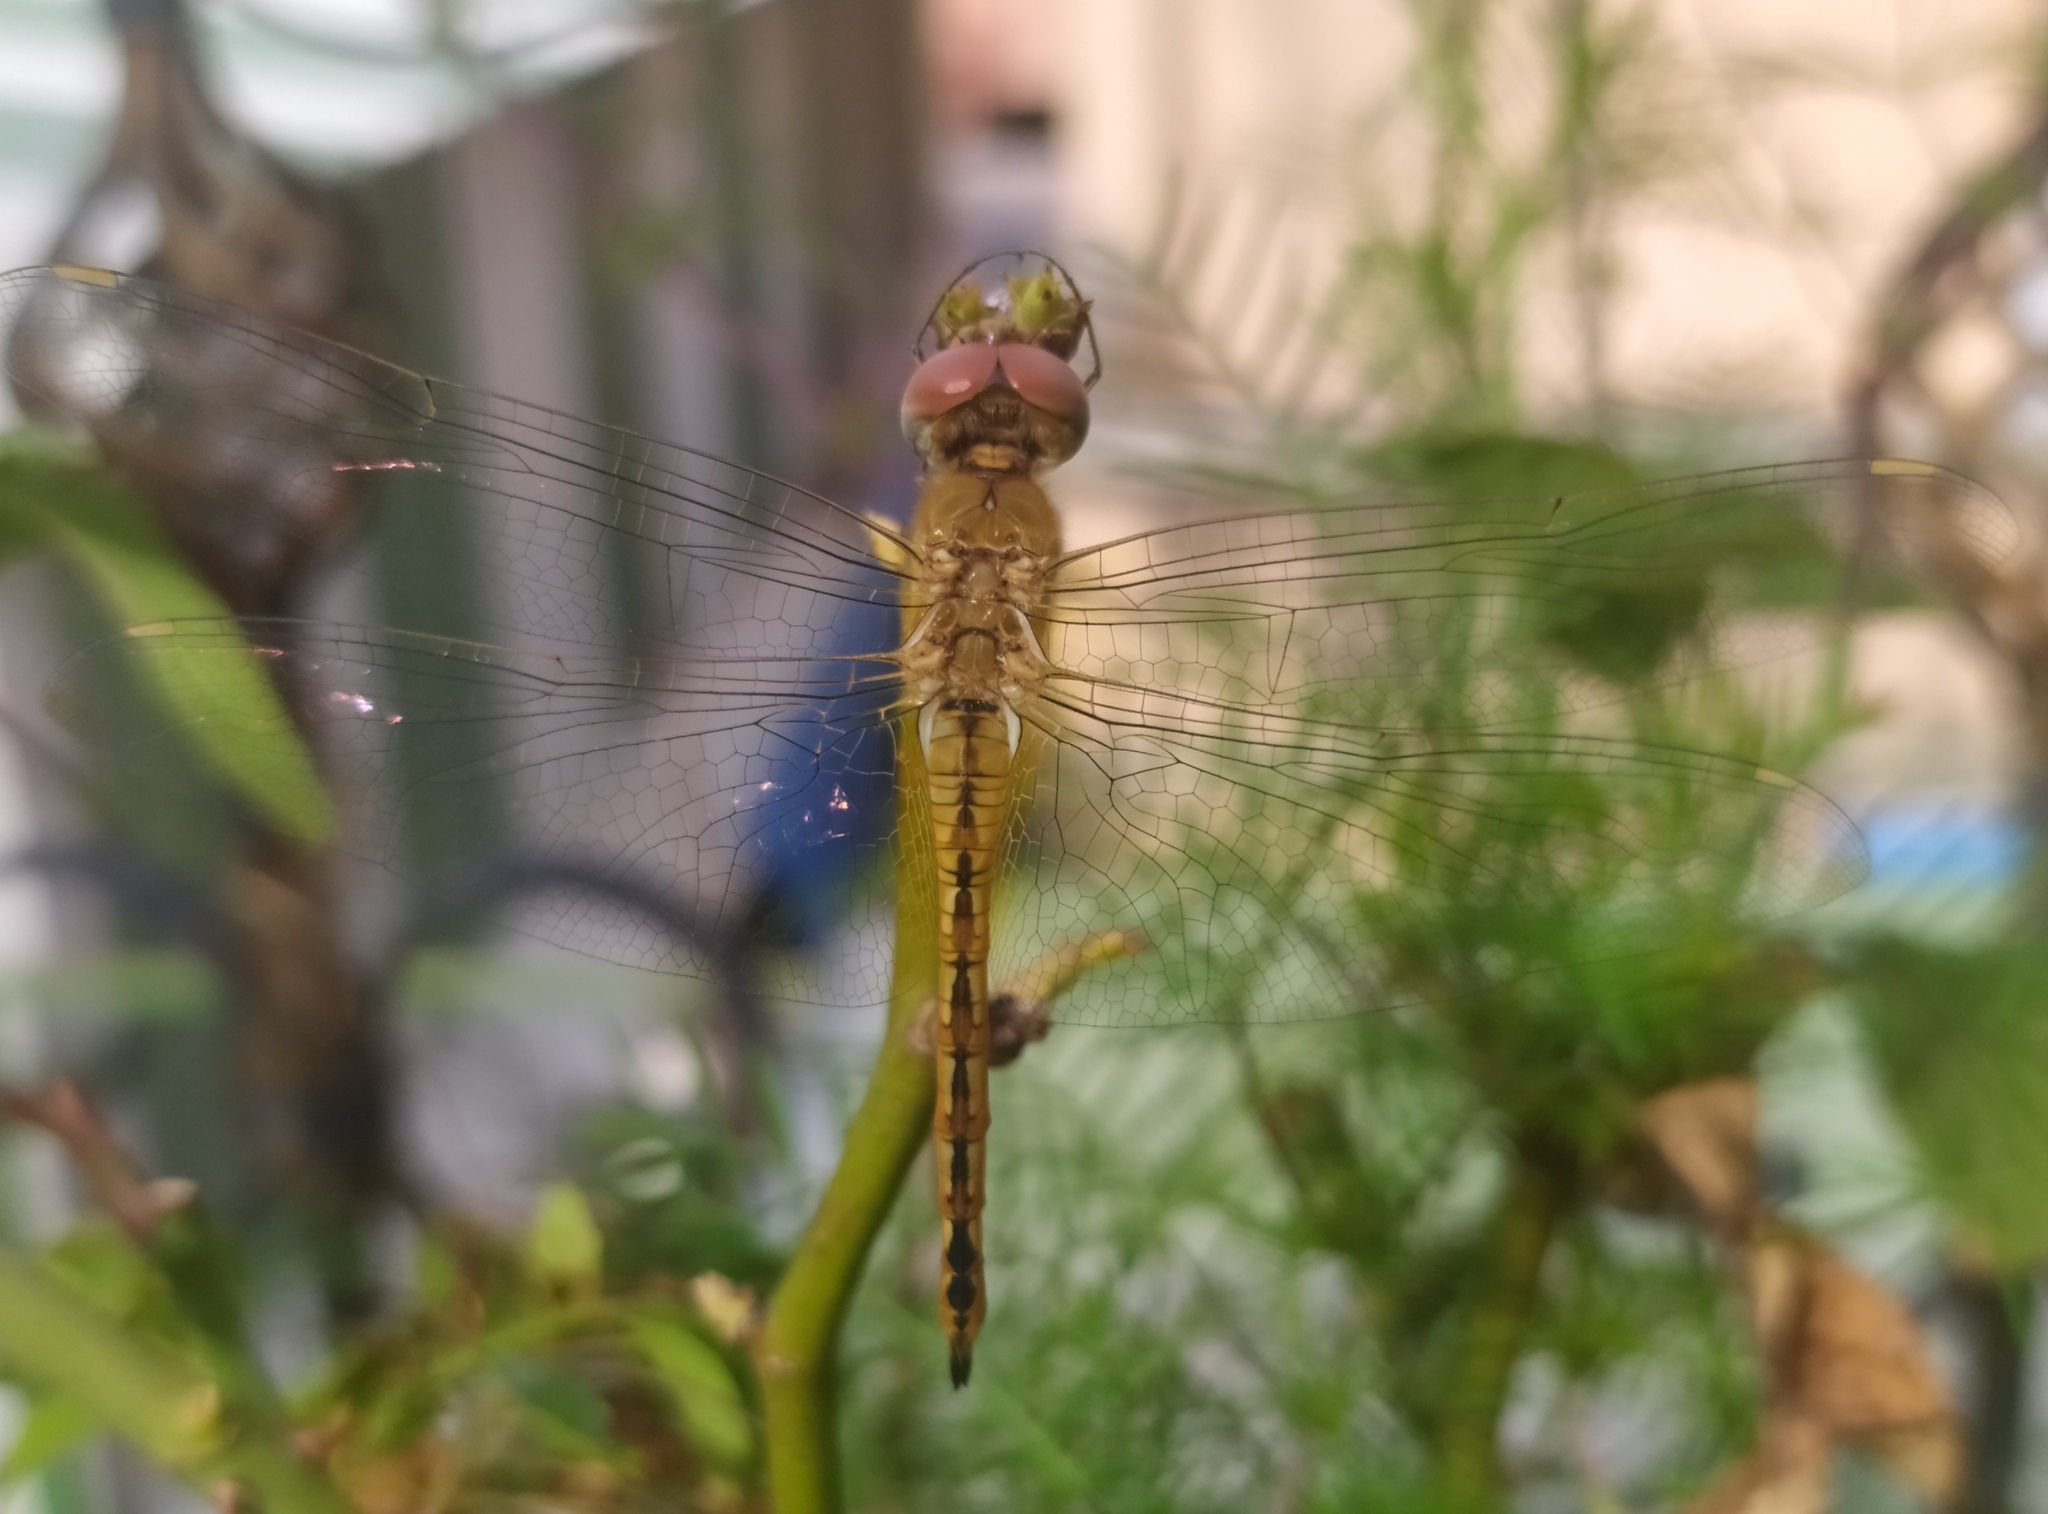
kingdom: Animalia
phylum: Arthropoda
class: Insecta
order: Odonata
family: Libellulidae
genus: Pantala
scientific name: Pantala flavescens
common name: Wandering glider
